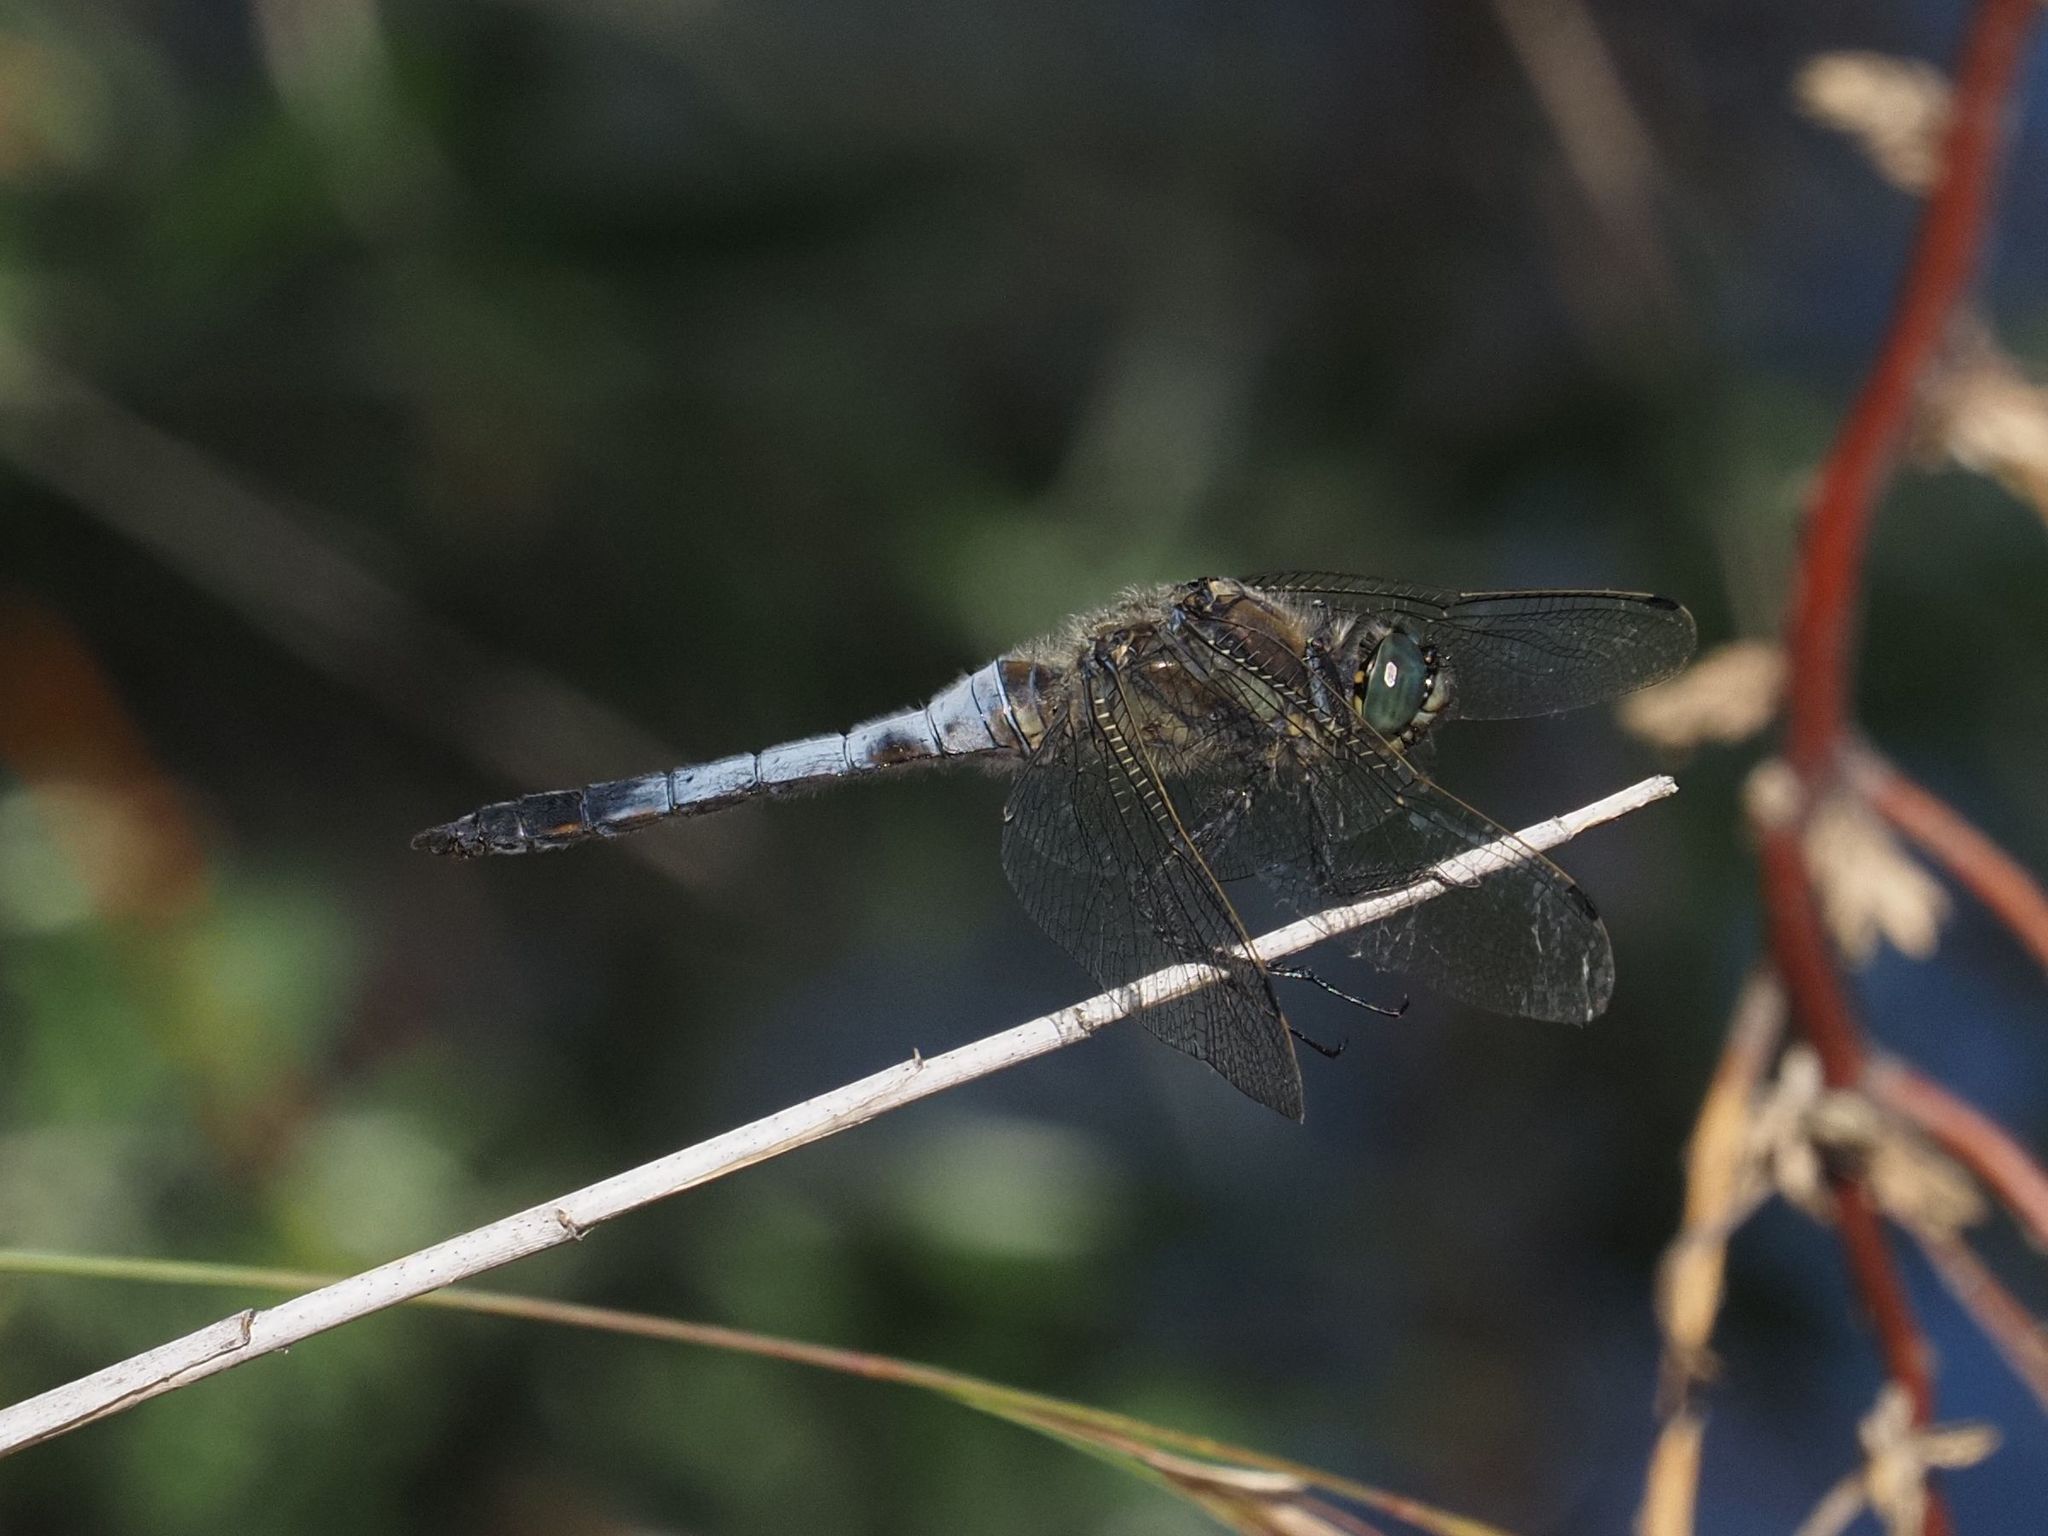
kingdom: Animalia
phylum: Arthropoda
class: Insecta
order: Odonata
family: Libellulidae
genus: Orthetrum
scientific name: Orthetrum cancellatum
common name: Black-tailed skimmer
